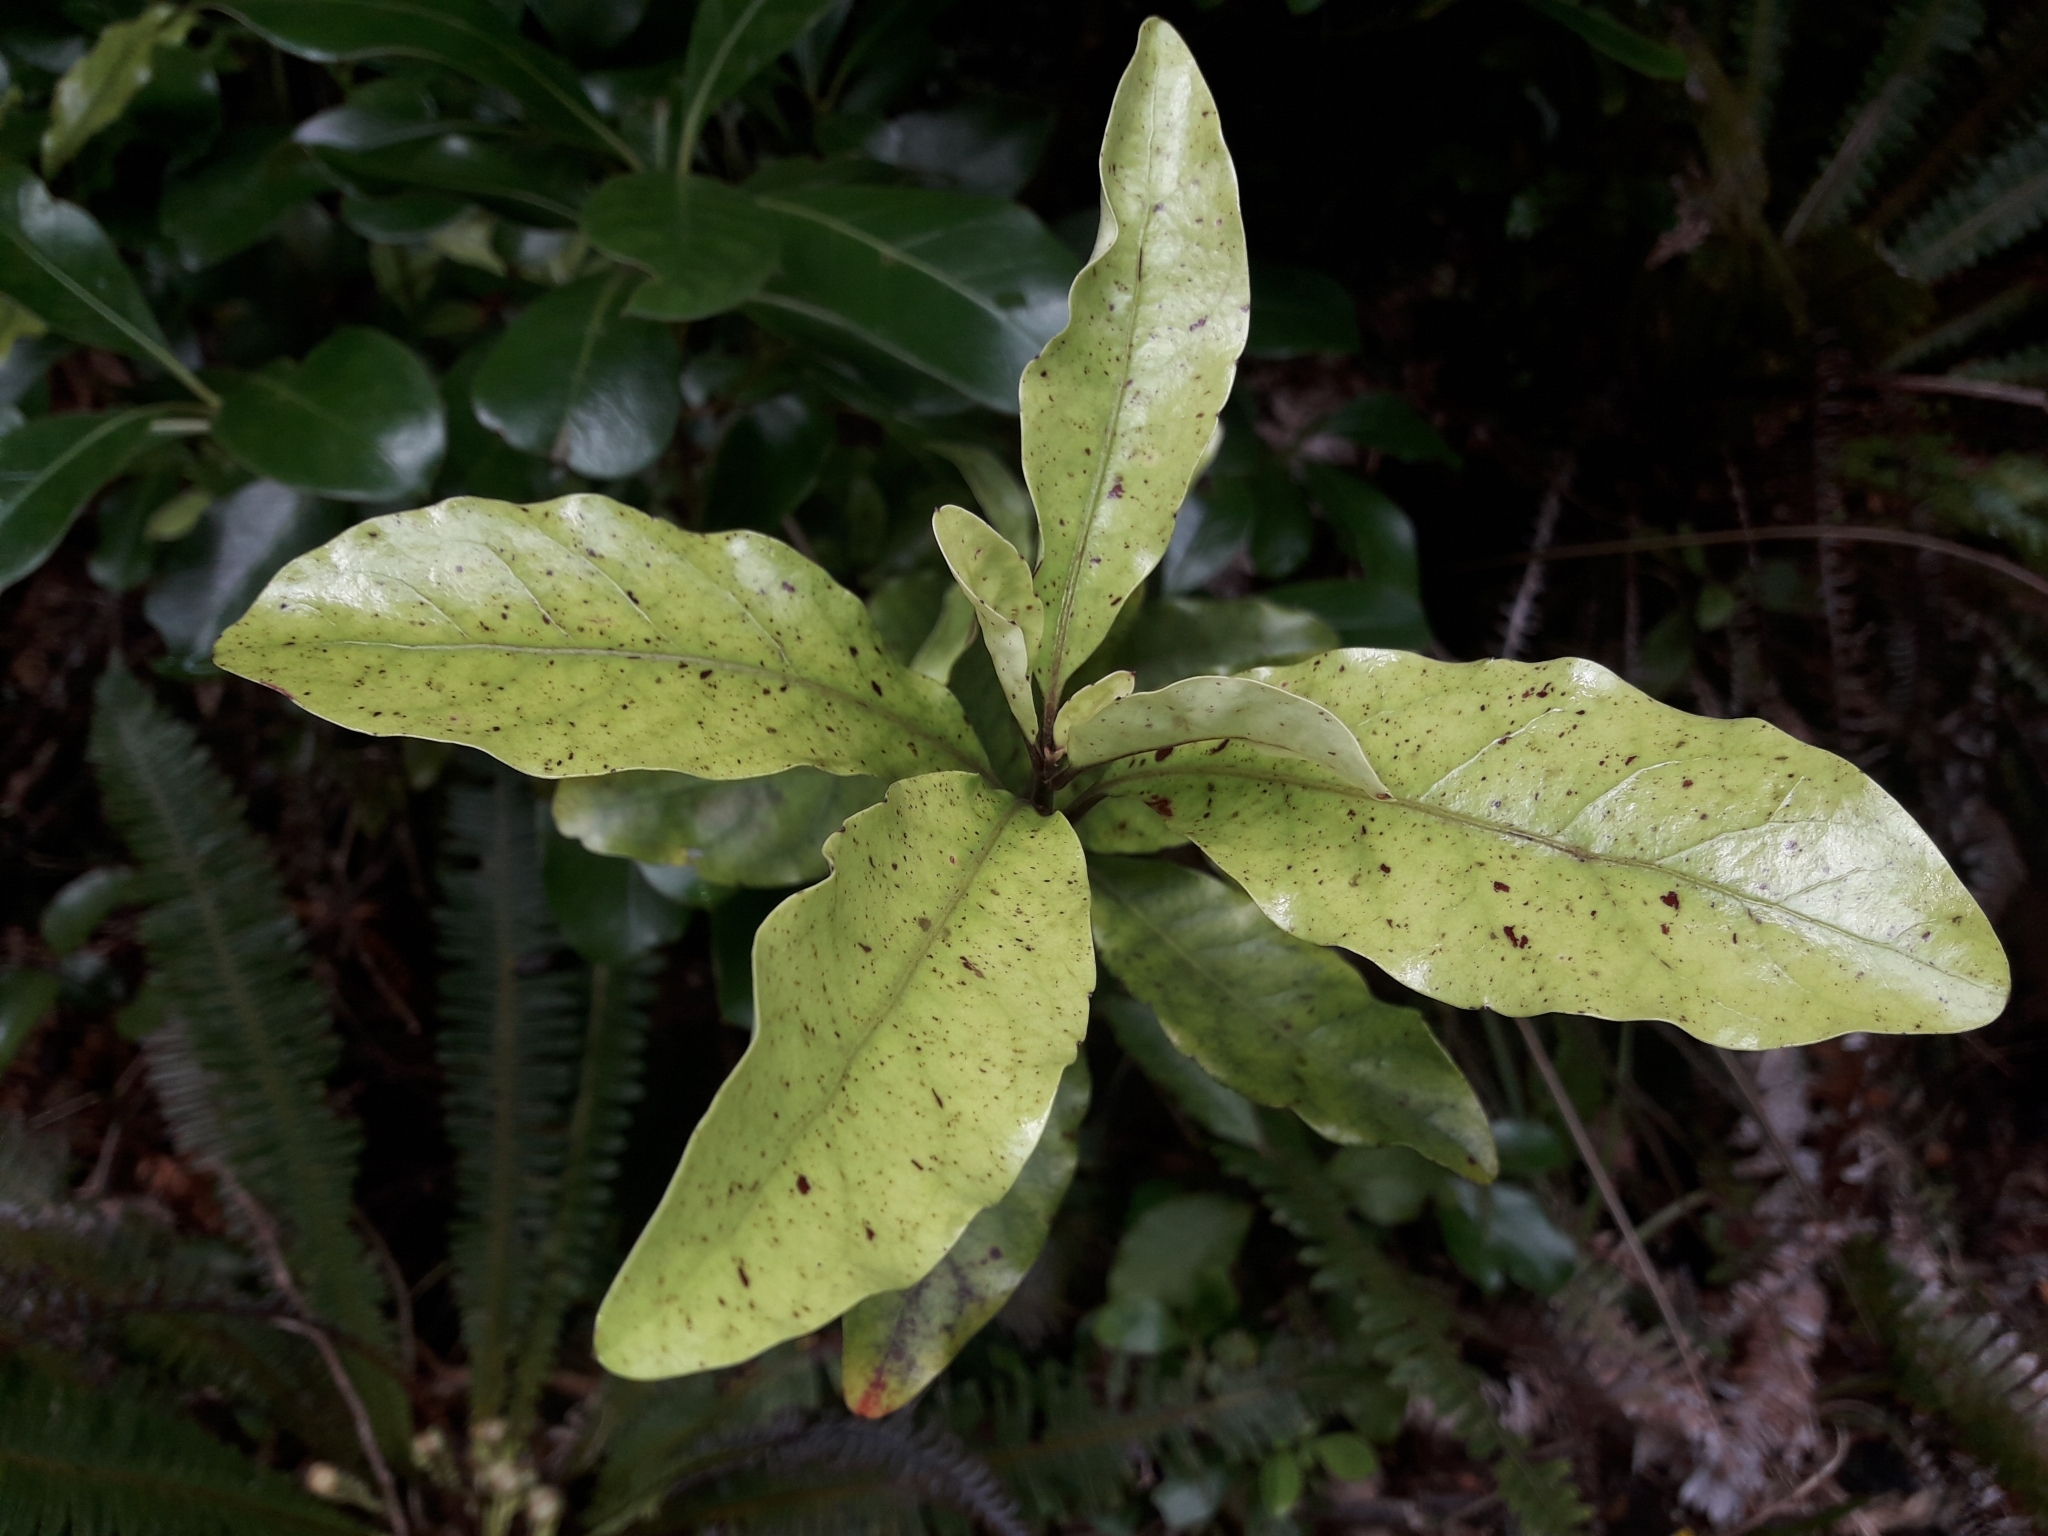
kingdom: Plantae
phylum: Tracheophyta
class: Magnoliopsida
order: Asterales
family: Alseuosmiaceae
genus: Alseuosmia
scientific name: Alseuosmia macrophylla
